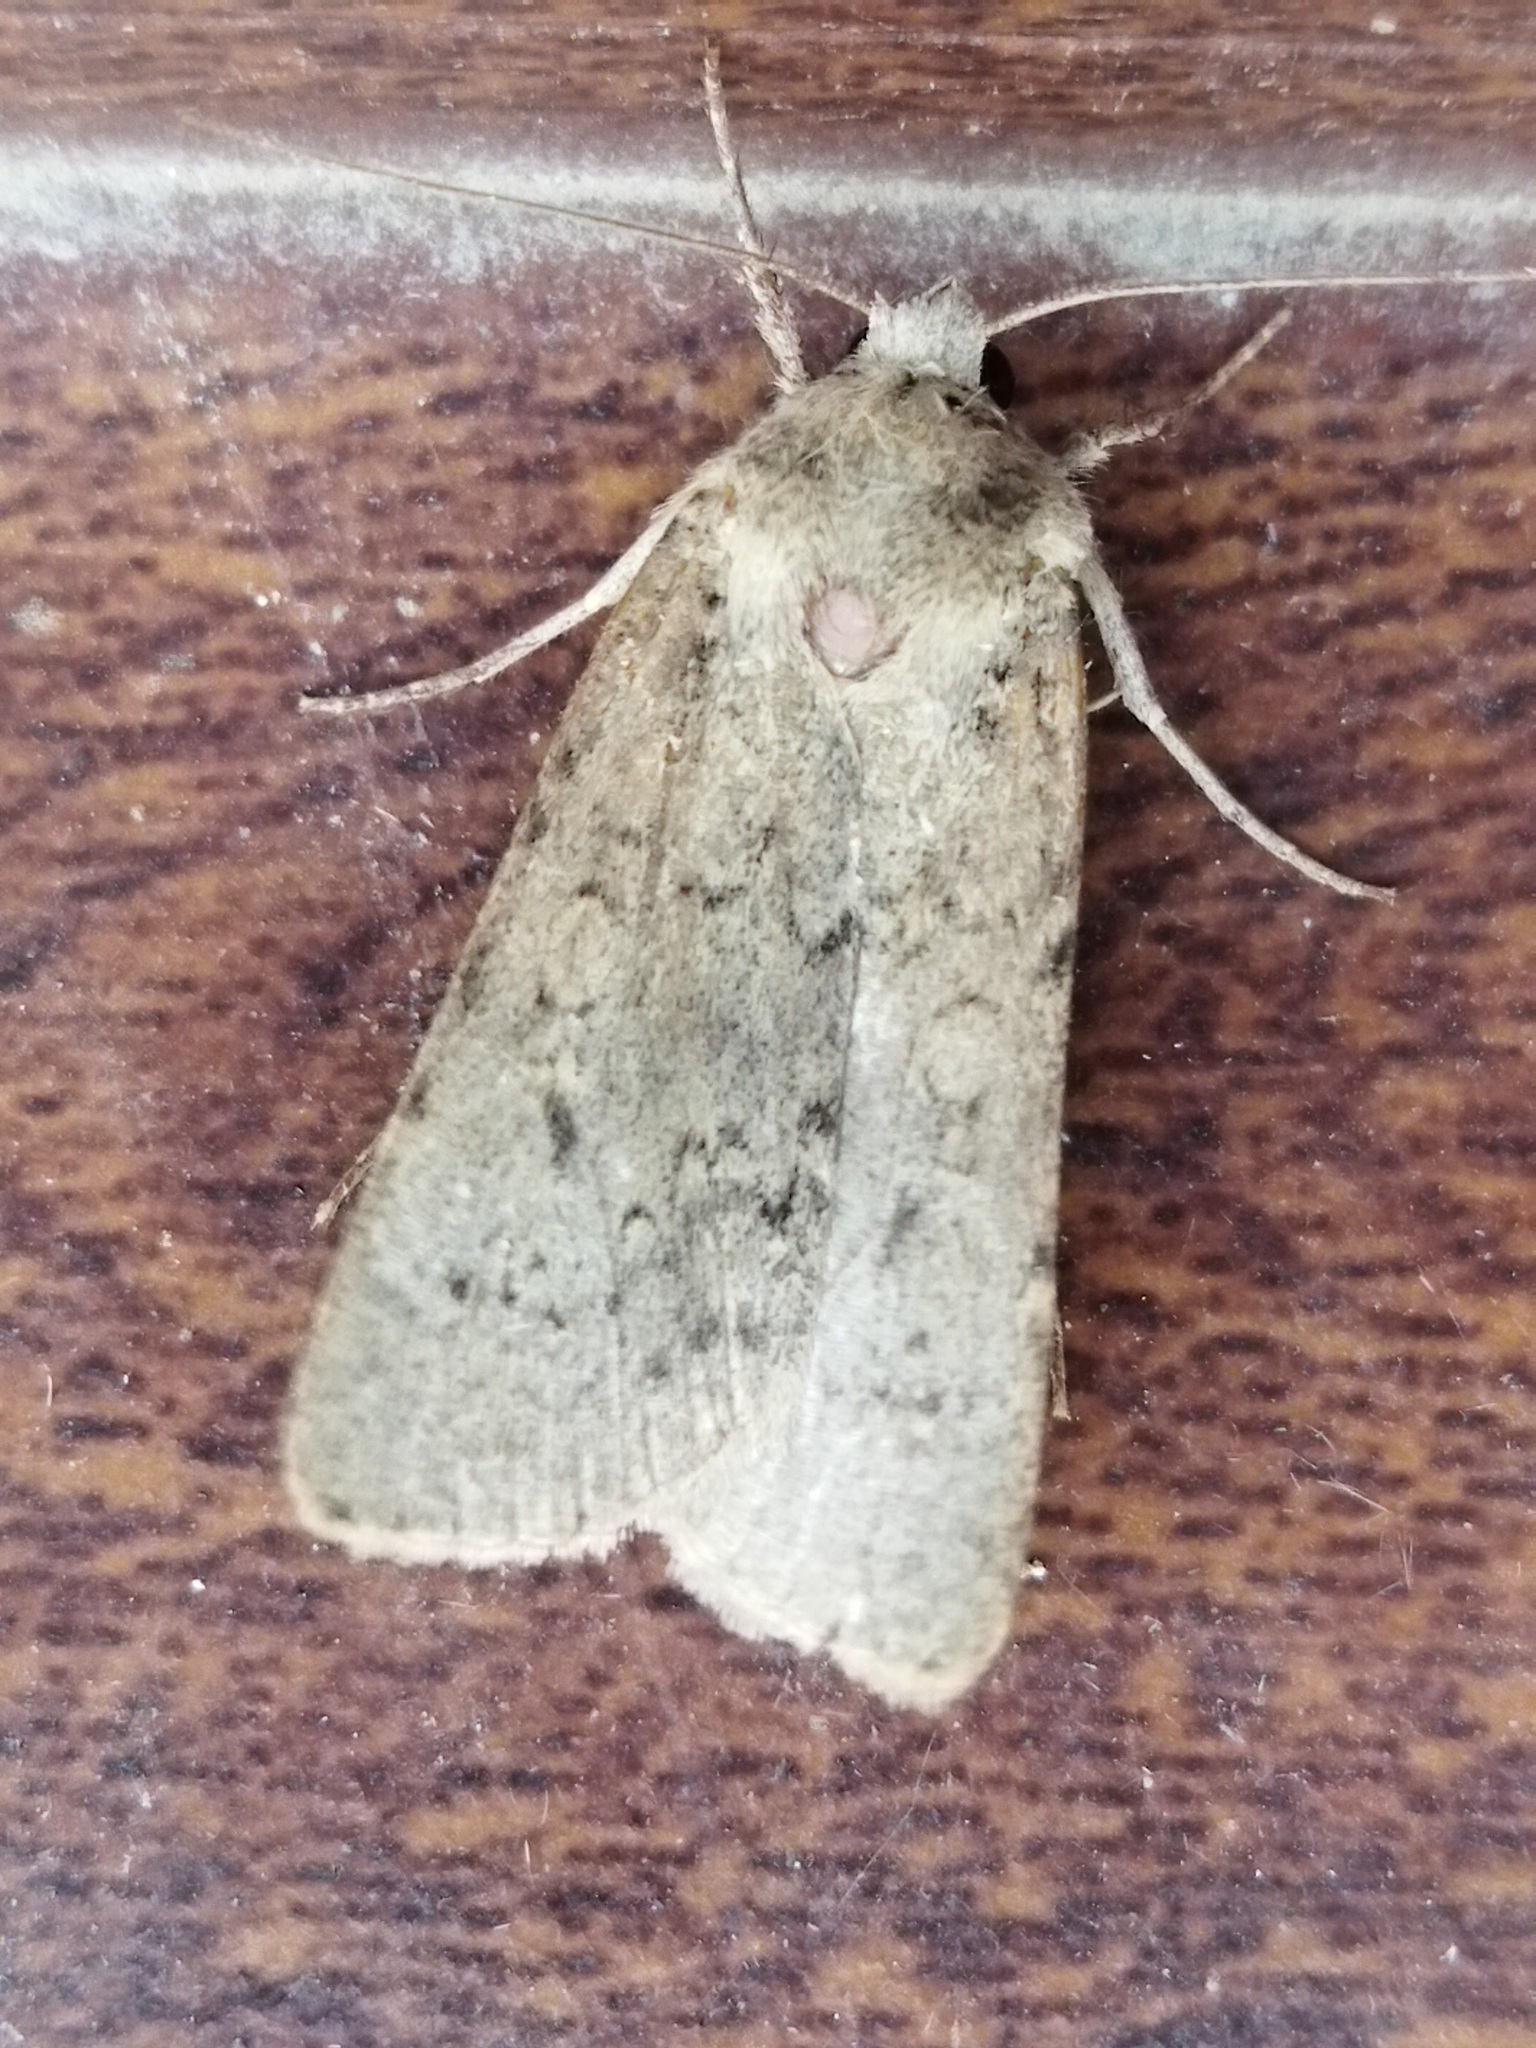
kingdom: Animalia
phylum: Arthropoda
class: Insecta
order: Lepidoptera
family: Noctuidae
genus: Rhyacia
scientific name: Rhyacia arenacea
